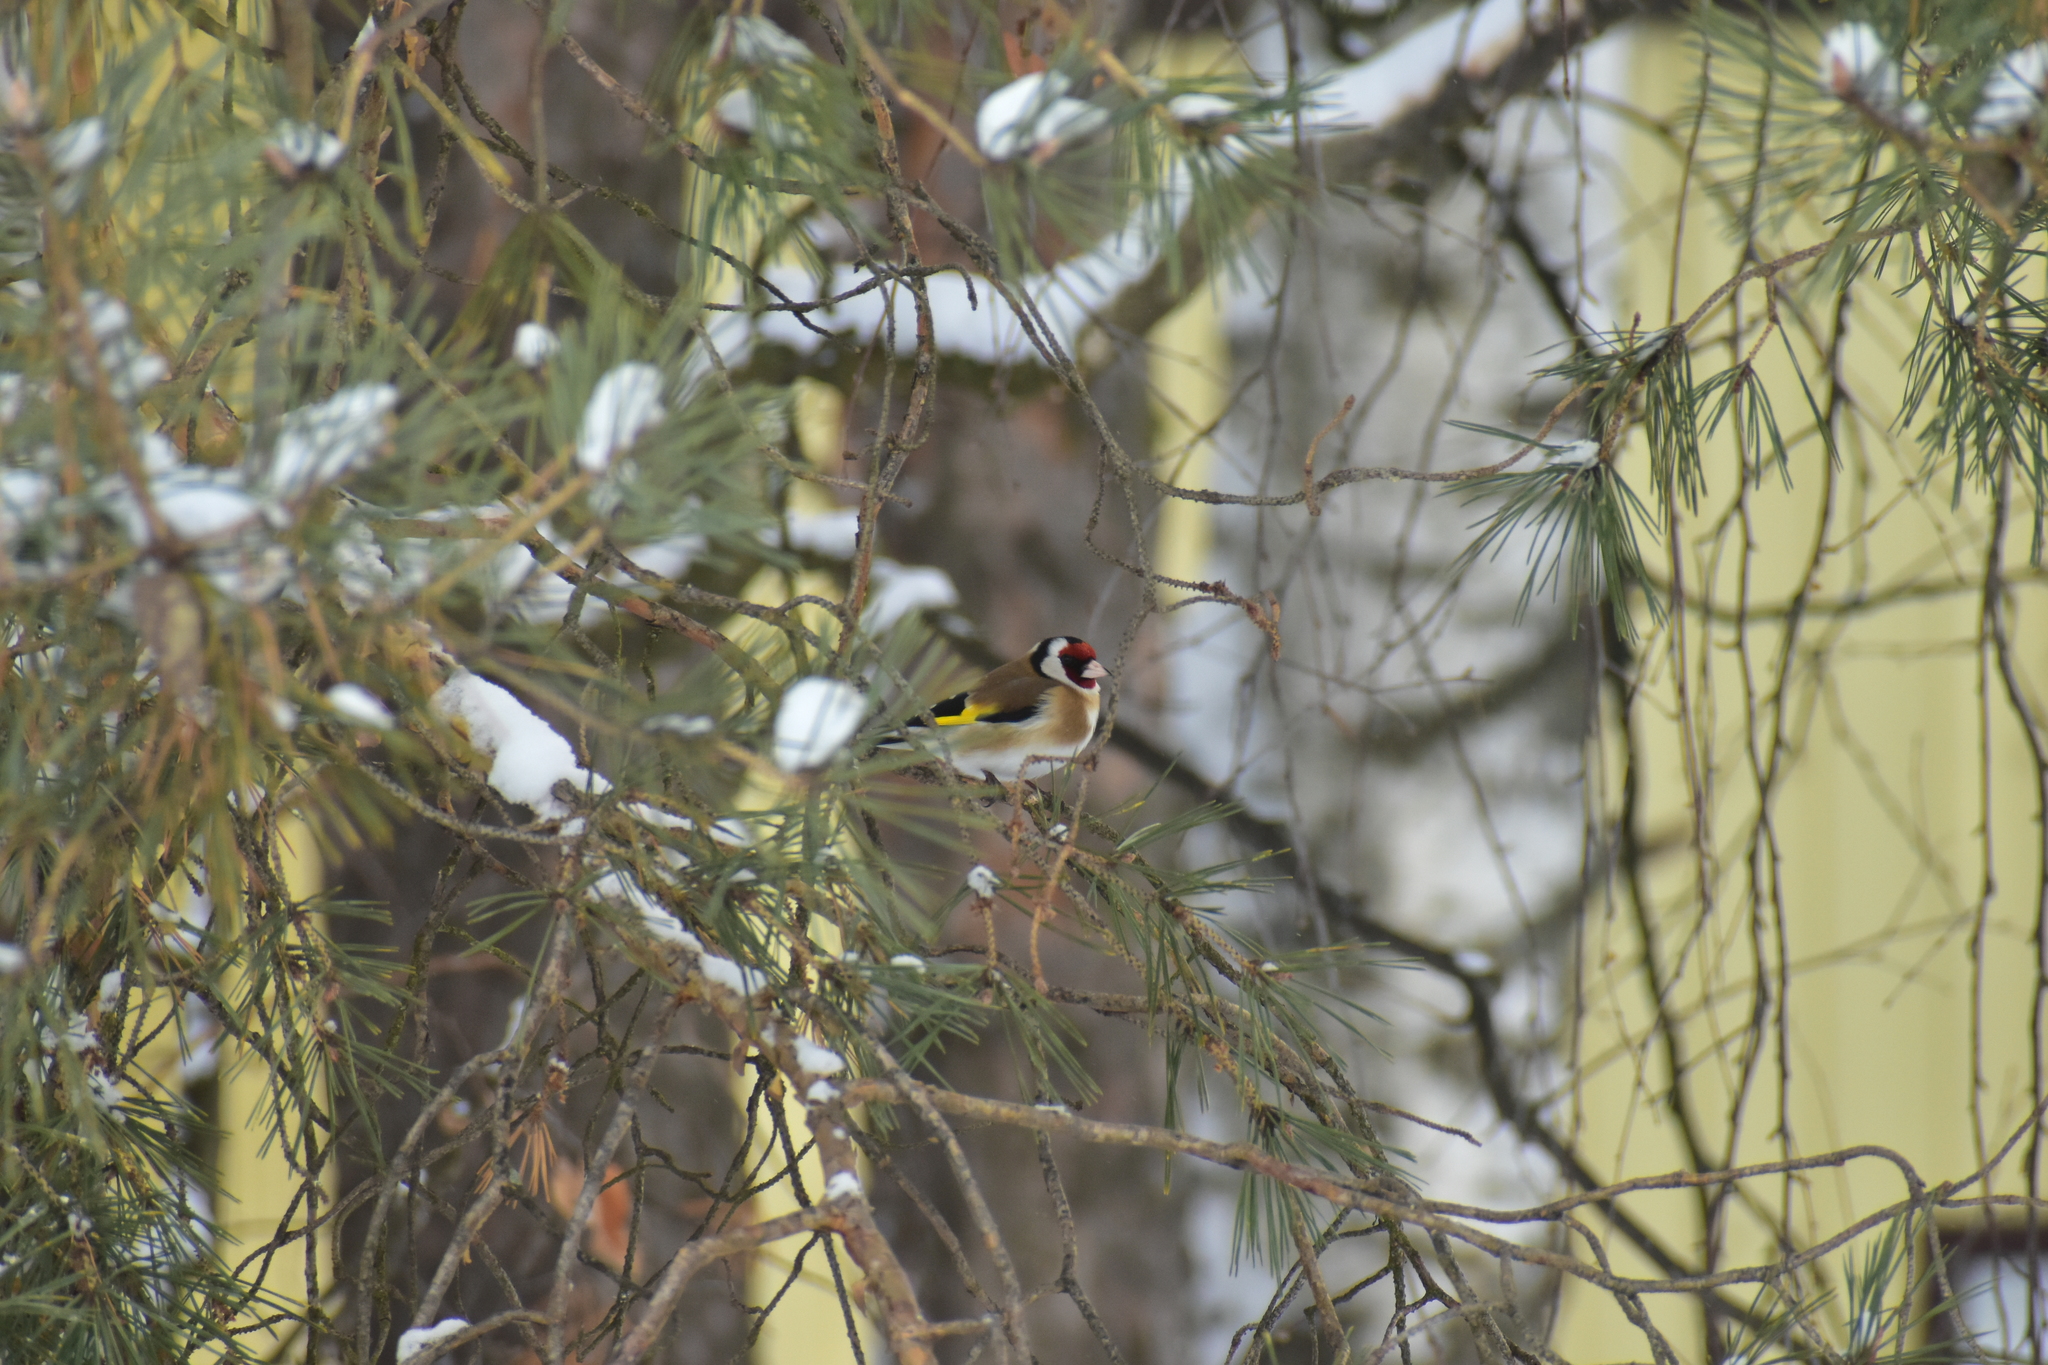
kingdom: Animalia
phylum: Chordata
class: Aves
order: Passeriformes
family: Fringillidae
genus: Carduelis
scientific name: Carduelis carduelis
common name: European goldfinch
